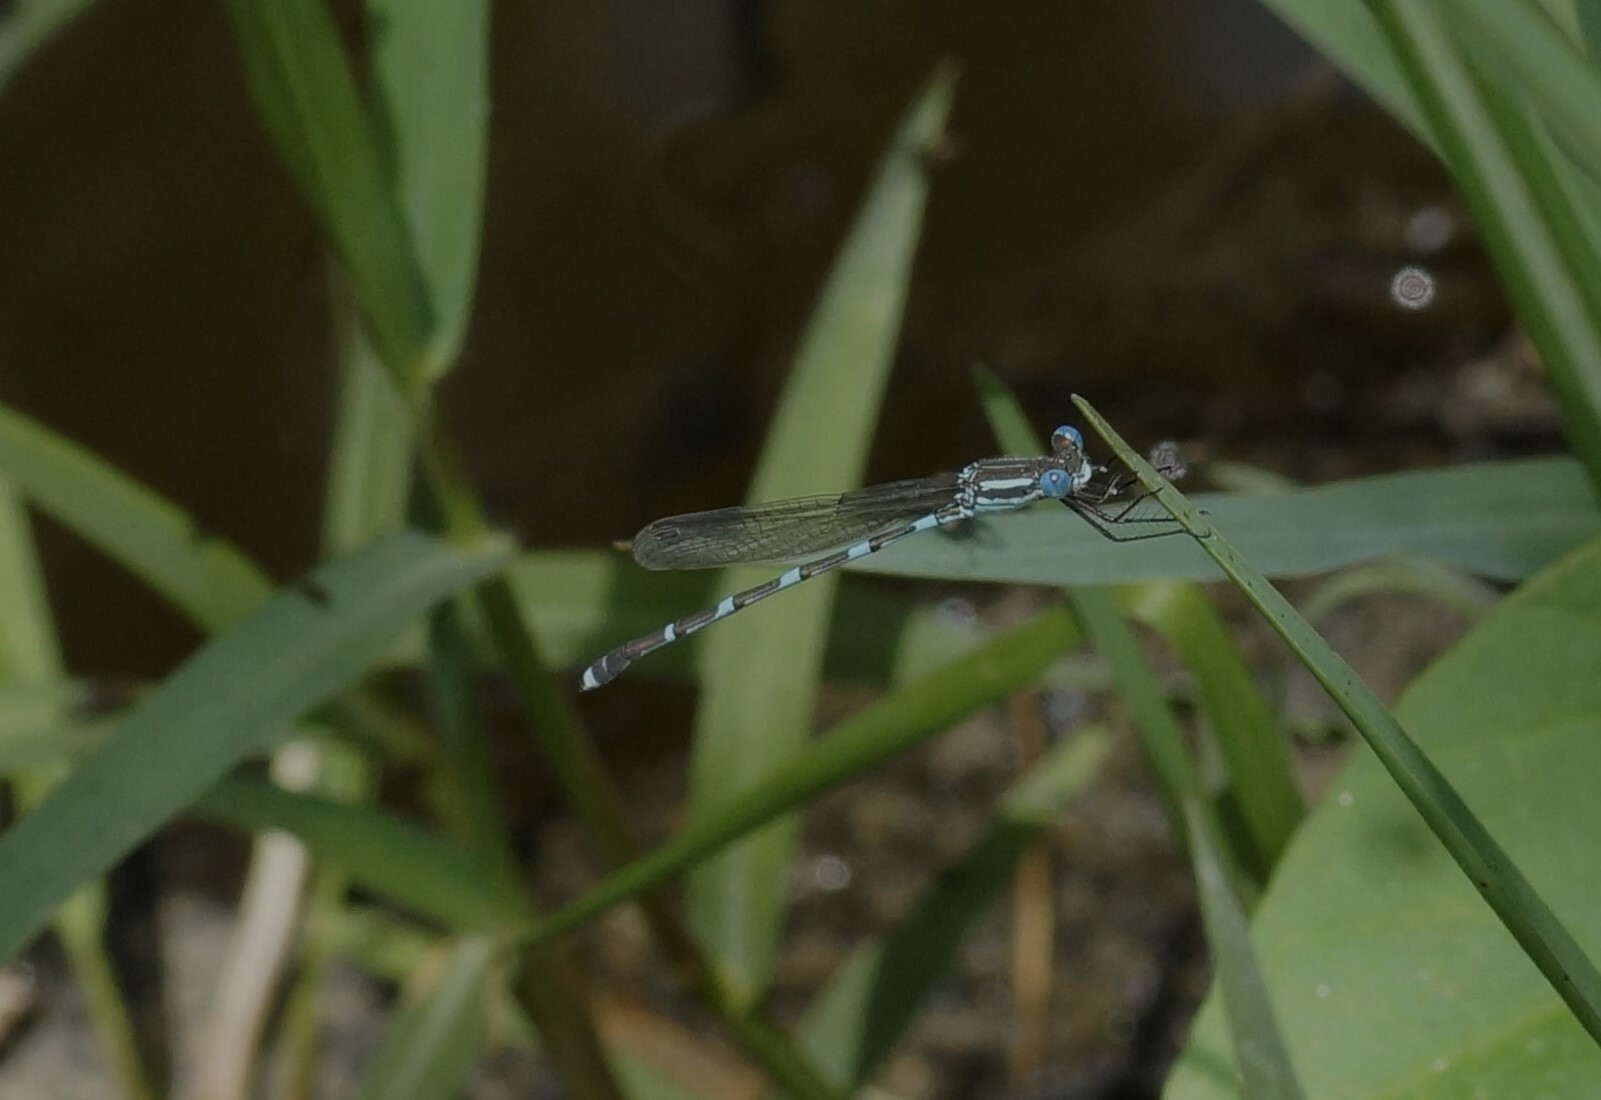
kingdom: Animalia
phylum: Arthropoda
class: Insecta
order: Odonata
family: Lestidae
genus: Austrolestes
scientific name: Austrolestes leda
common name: Wandering ringtail
